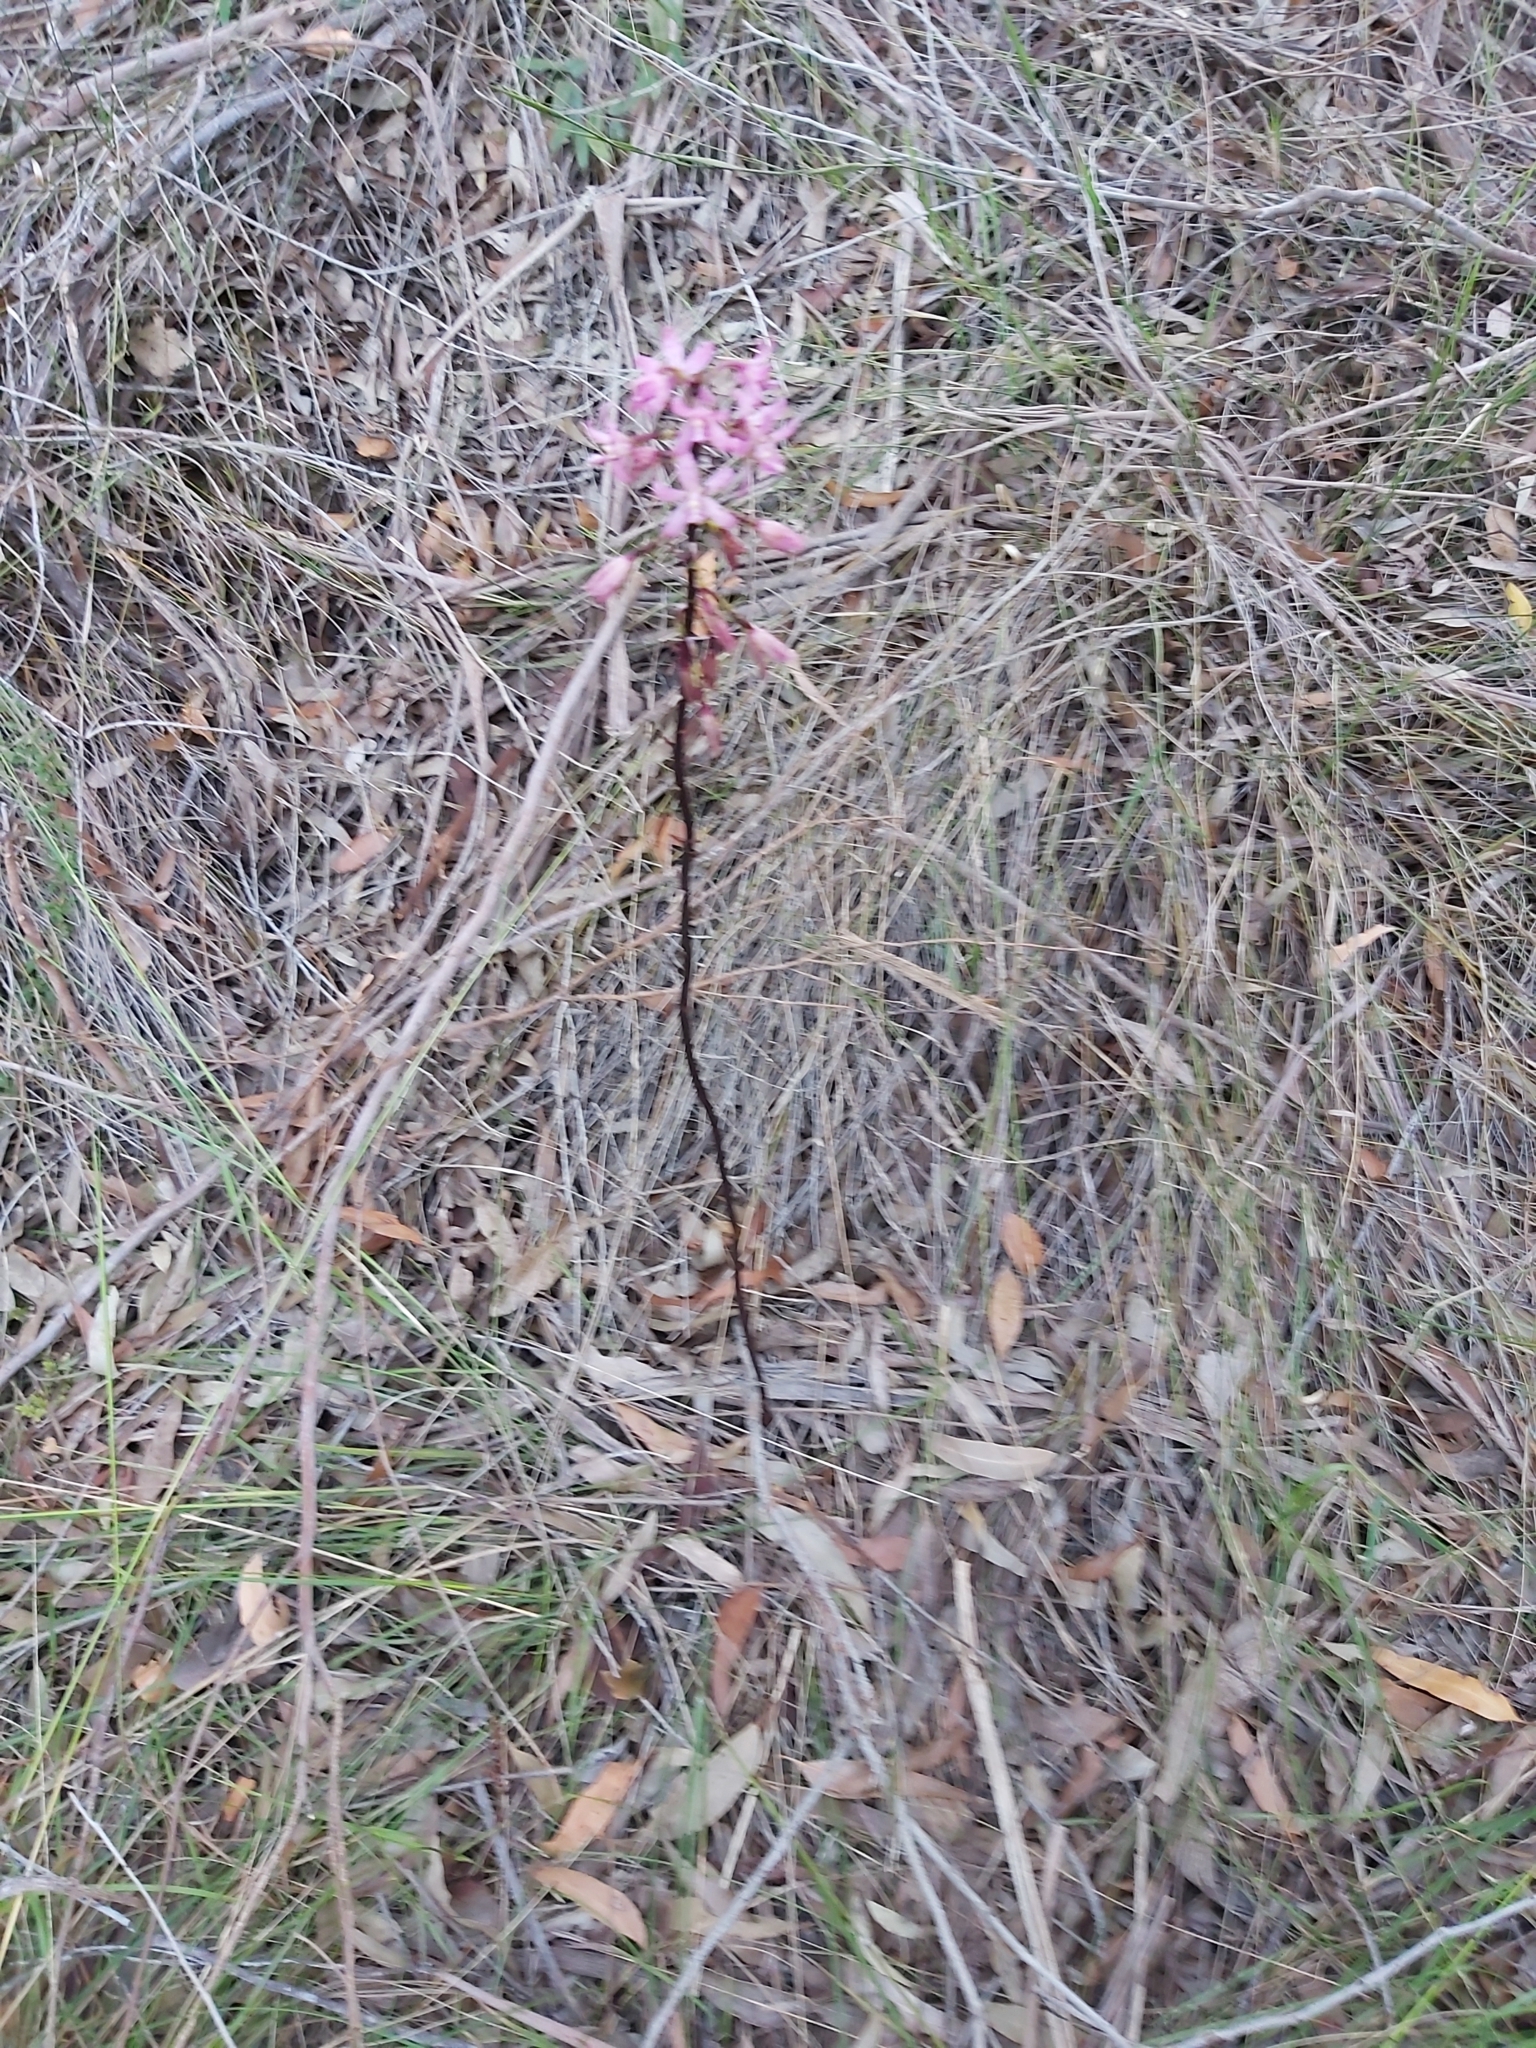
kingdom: Plantae
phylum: Tracheophyta
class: Liliopsida
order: Asparagales
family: Orchidaceae
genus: Dipodium
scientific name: Dipodium roseum
